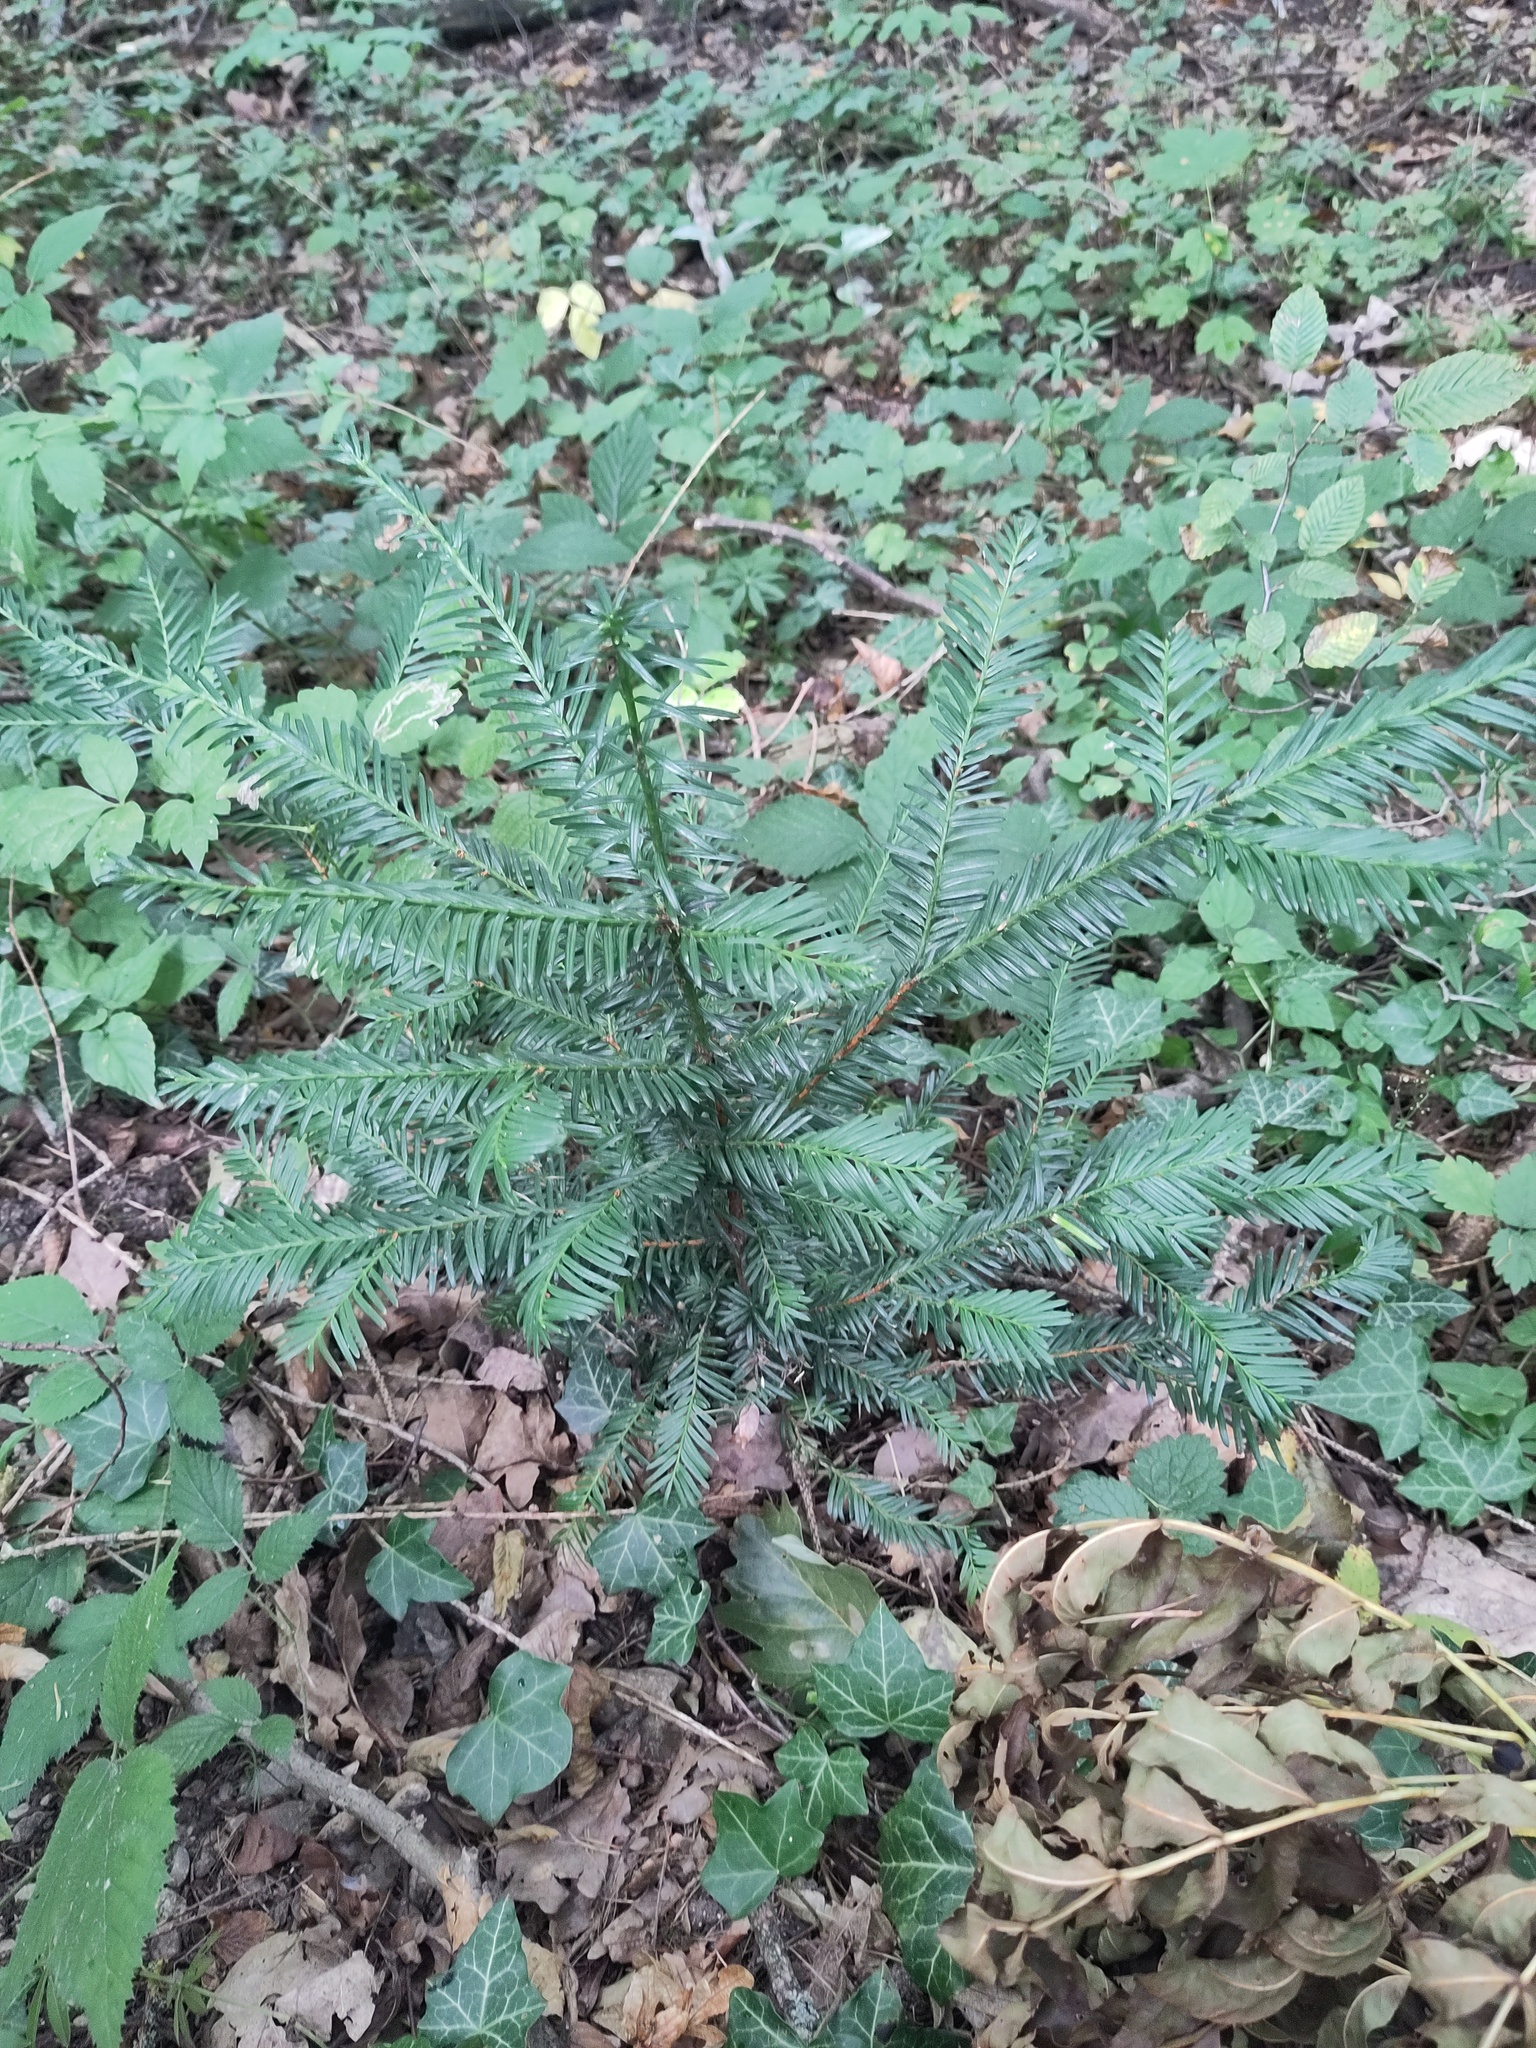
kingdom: Plantae
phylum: Tracheophyta
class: Pinopsida
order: Pinales
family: Taxaceae
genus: Taxus
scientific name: Taxus baccata
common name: Yew
